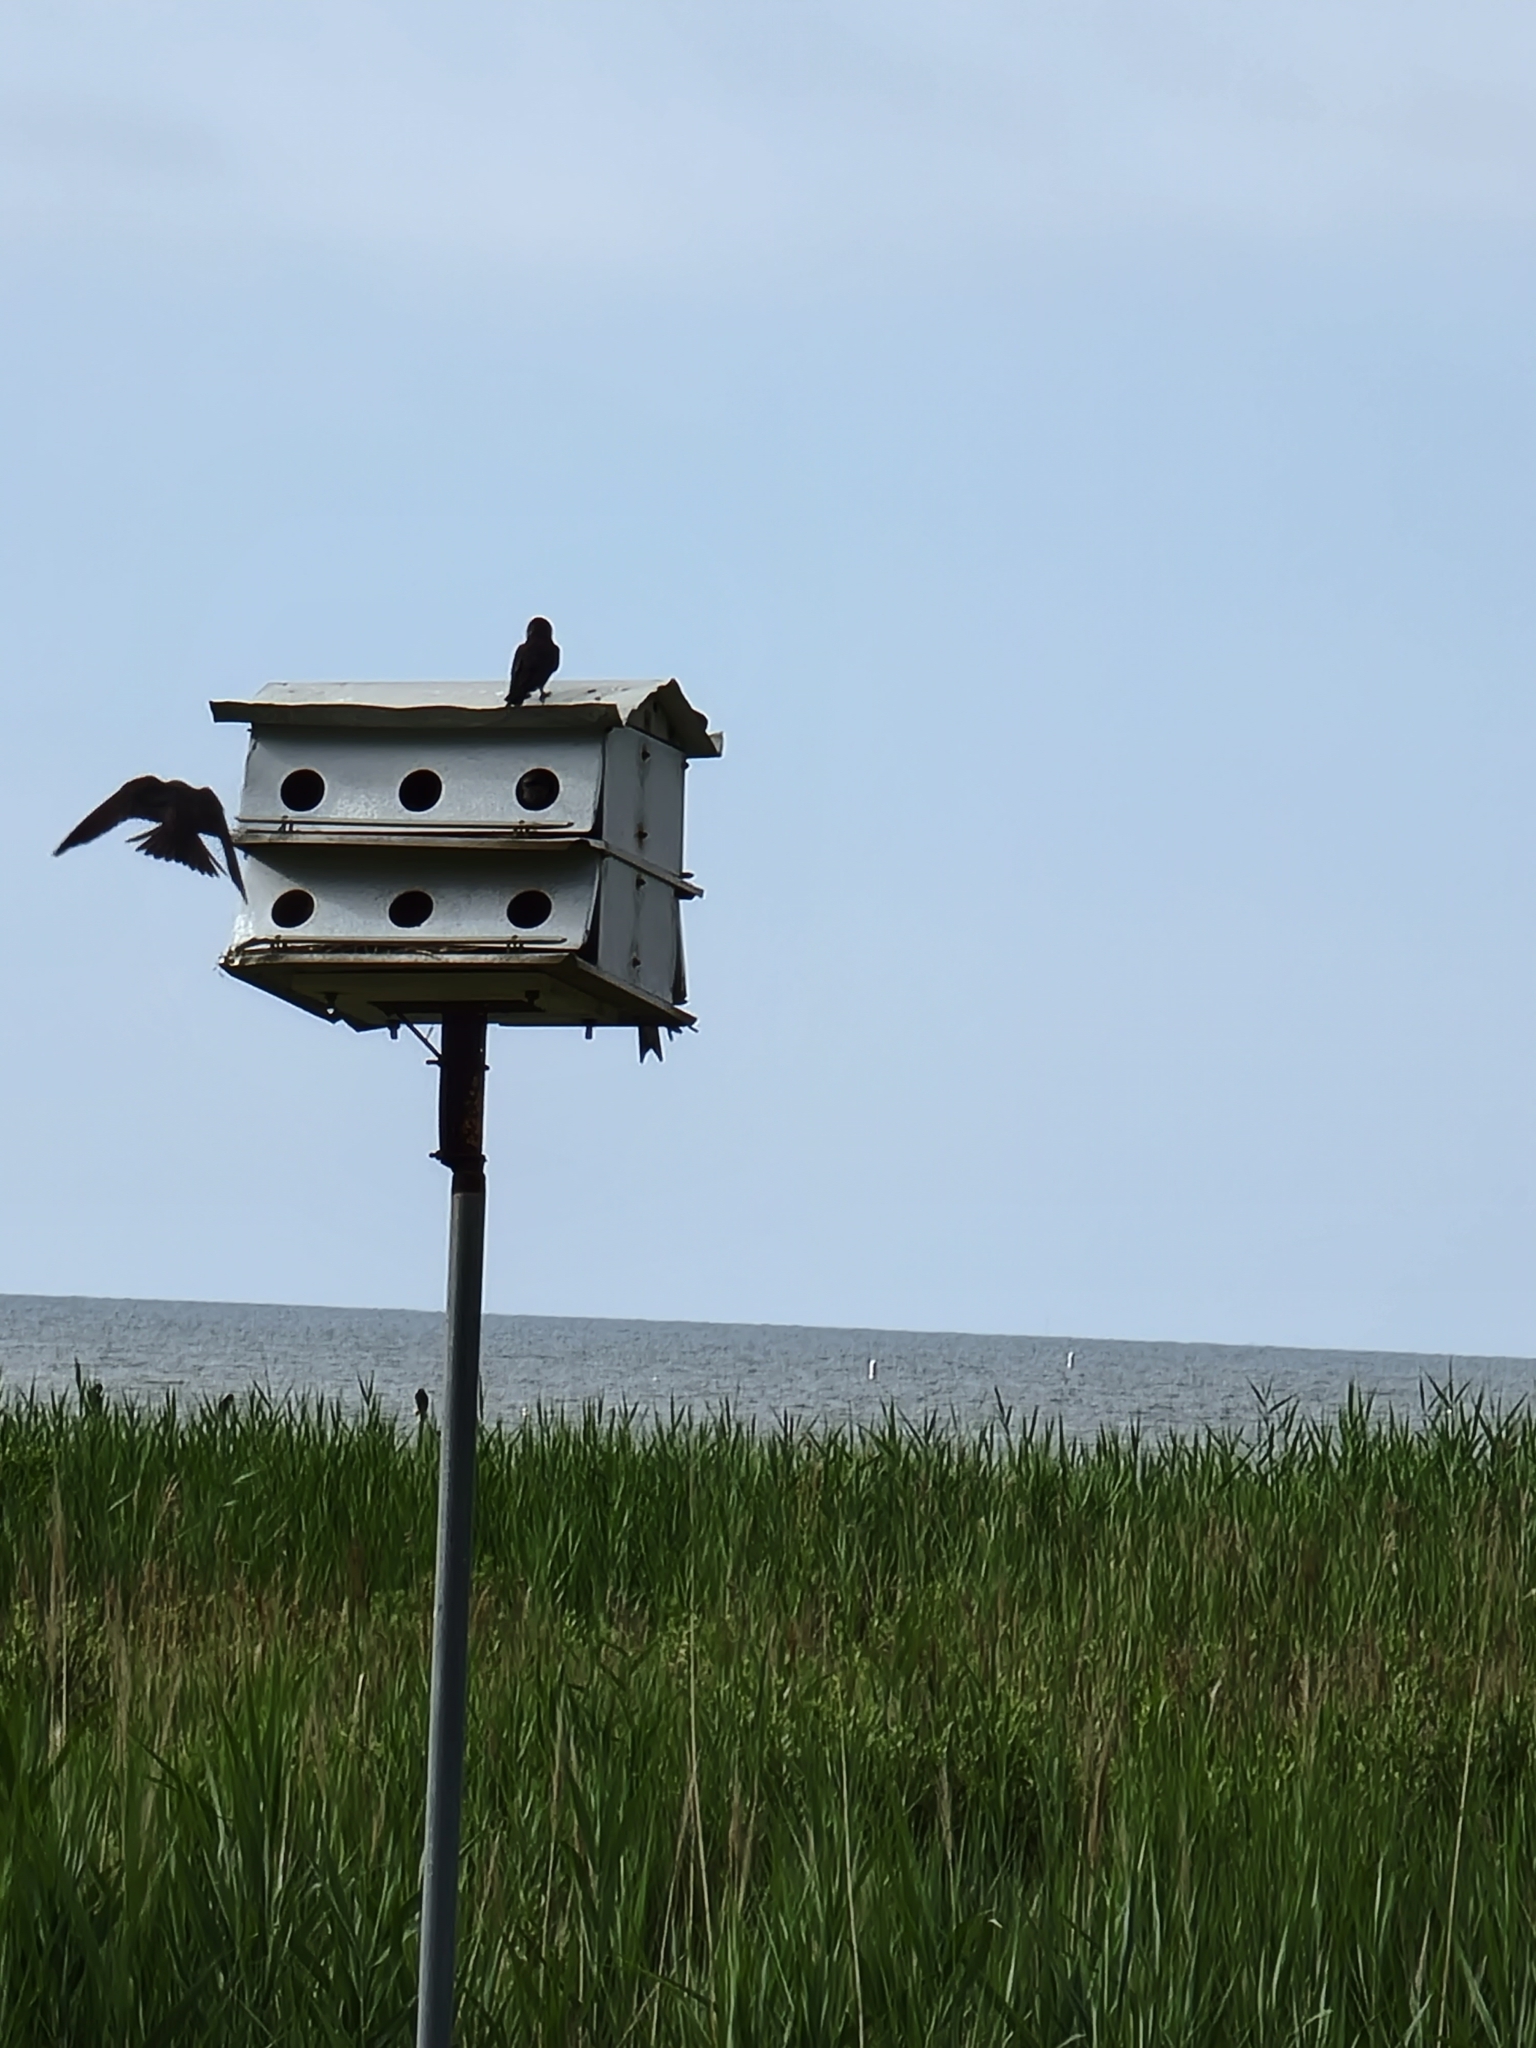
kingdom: Animalia
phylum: Chordata
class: Aves
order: Passeriformes
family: Hirundinidae
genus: Progne
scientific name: Progne subis
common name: Purple martin
